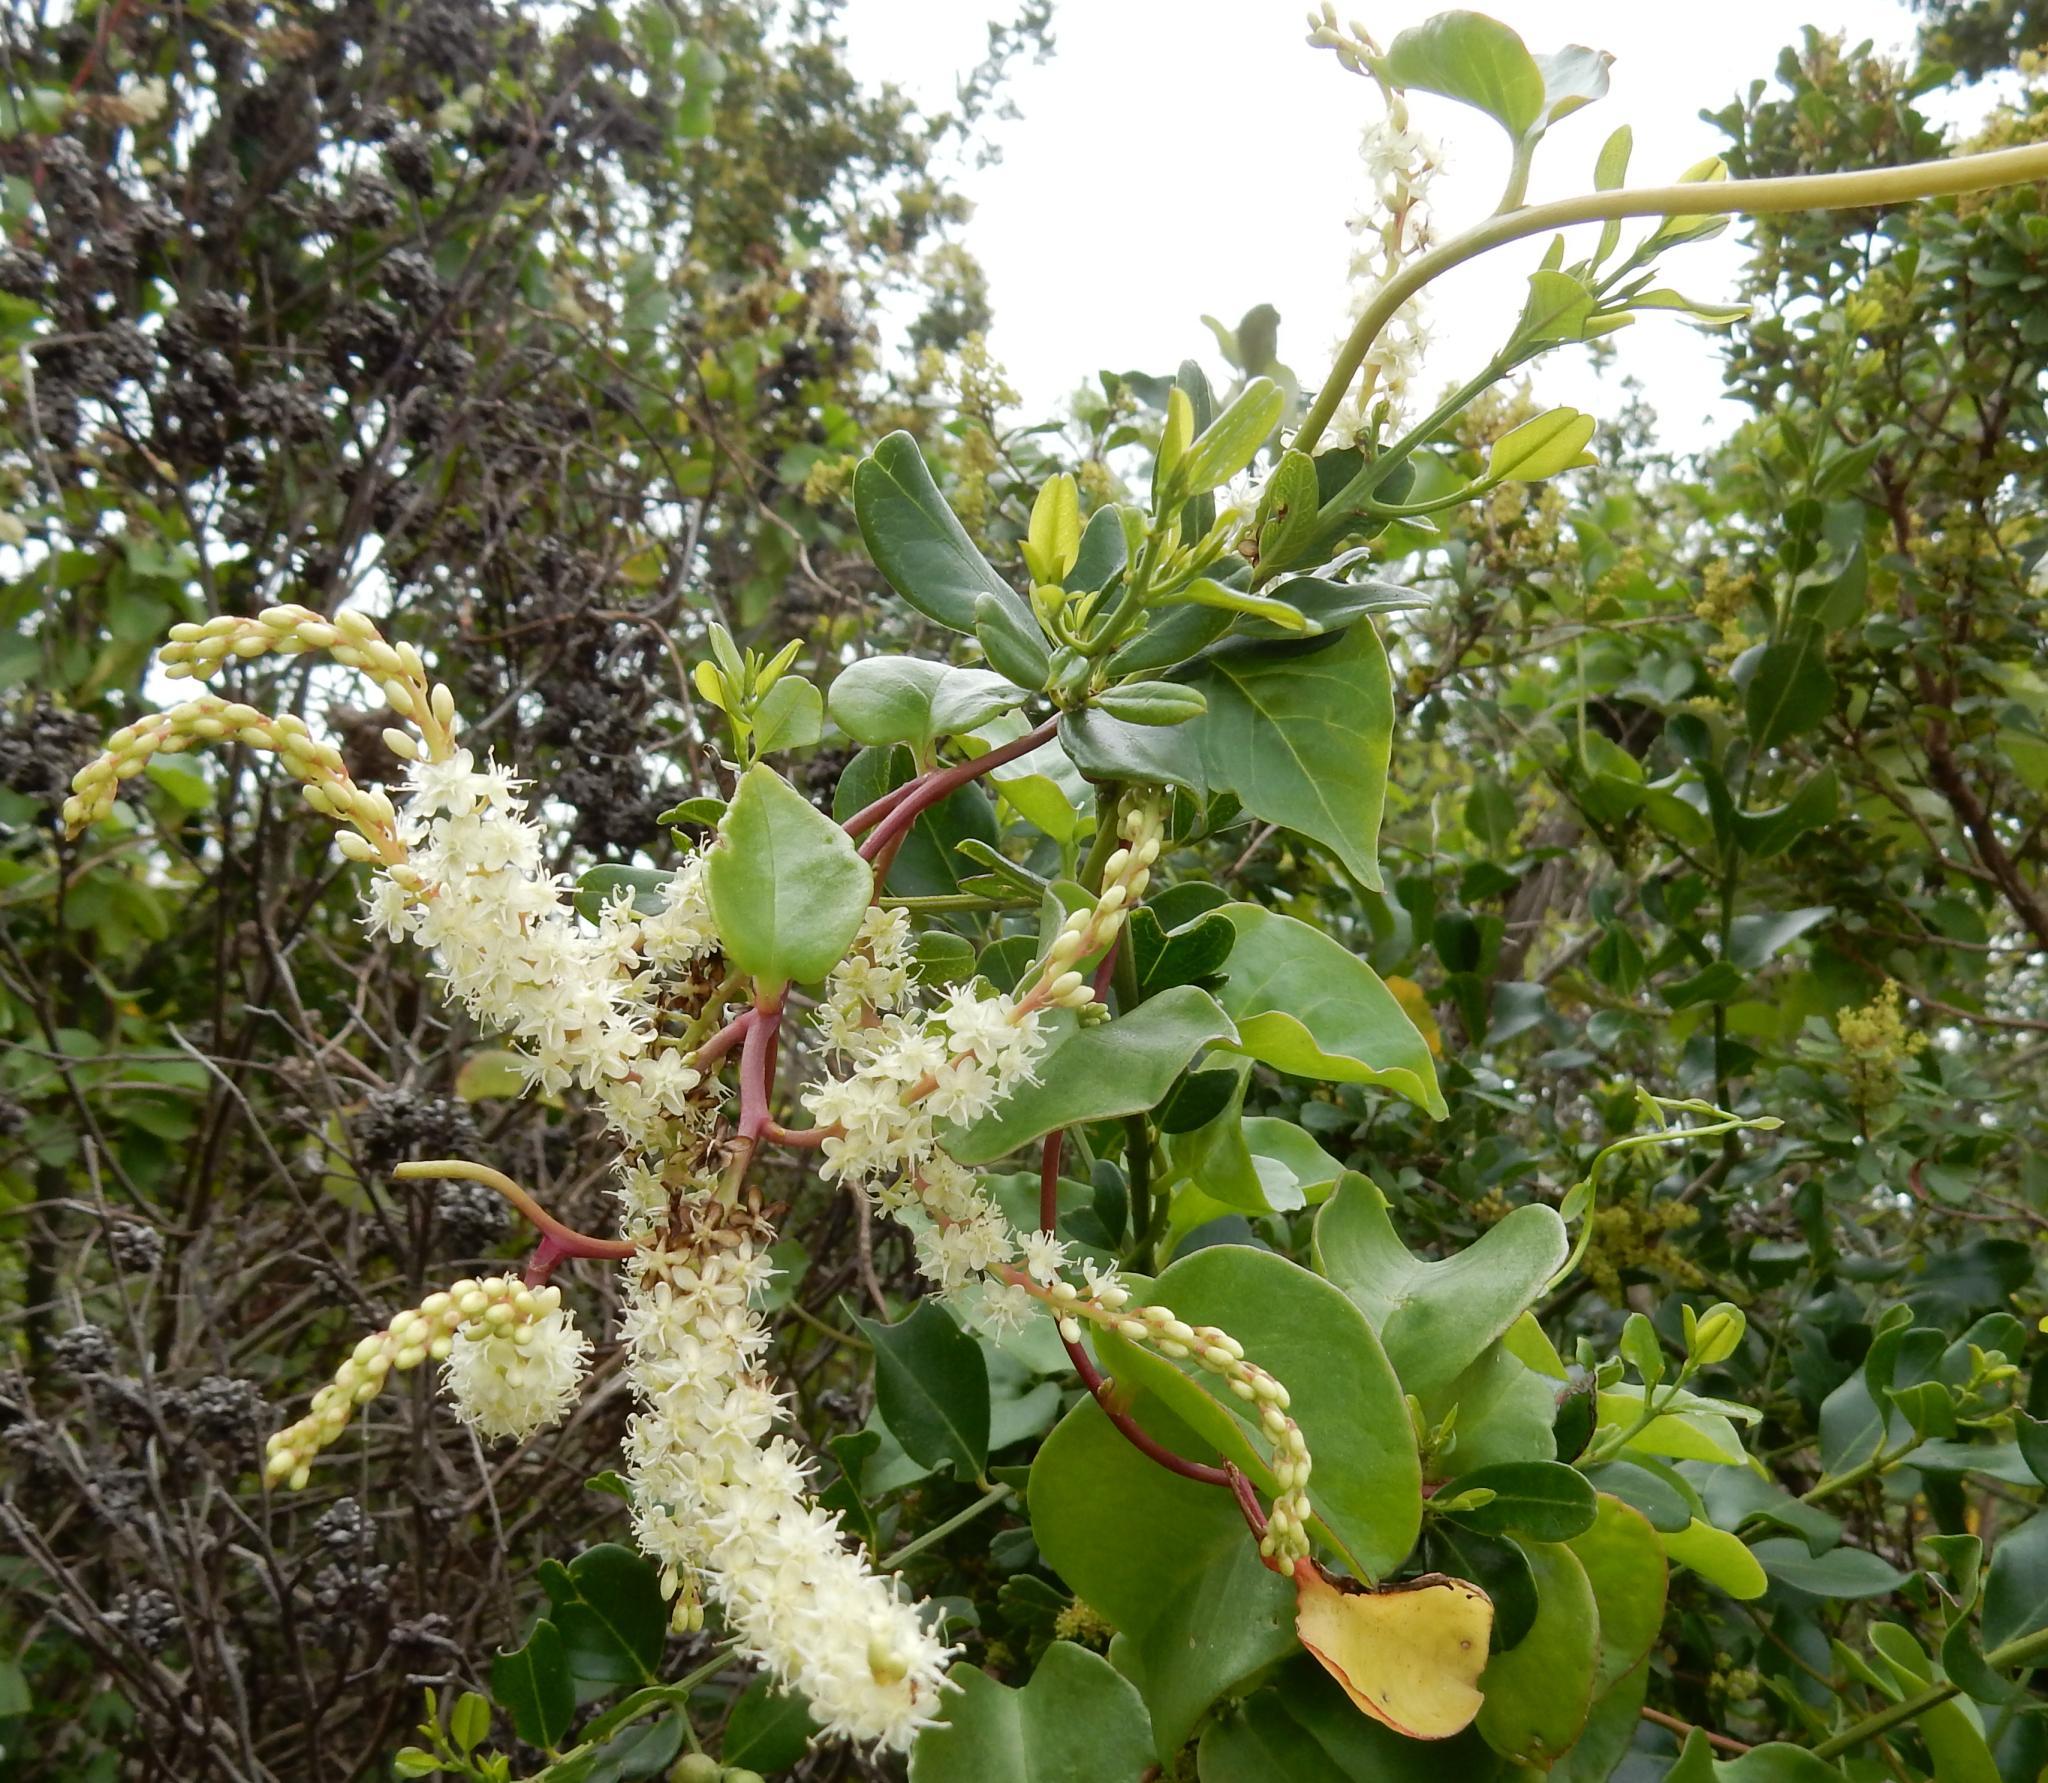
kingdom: Plantae
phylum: Tracheophyta
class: Magnoliopsida
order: Caryophyllales
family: Basellaceae
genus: Anredera
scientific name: Anredera cordifolia
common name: Heartleaf madeiravine
